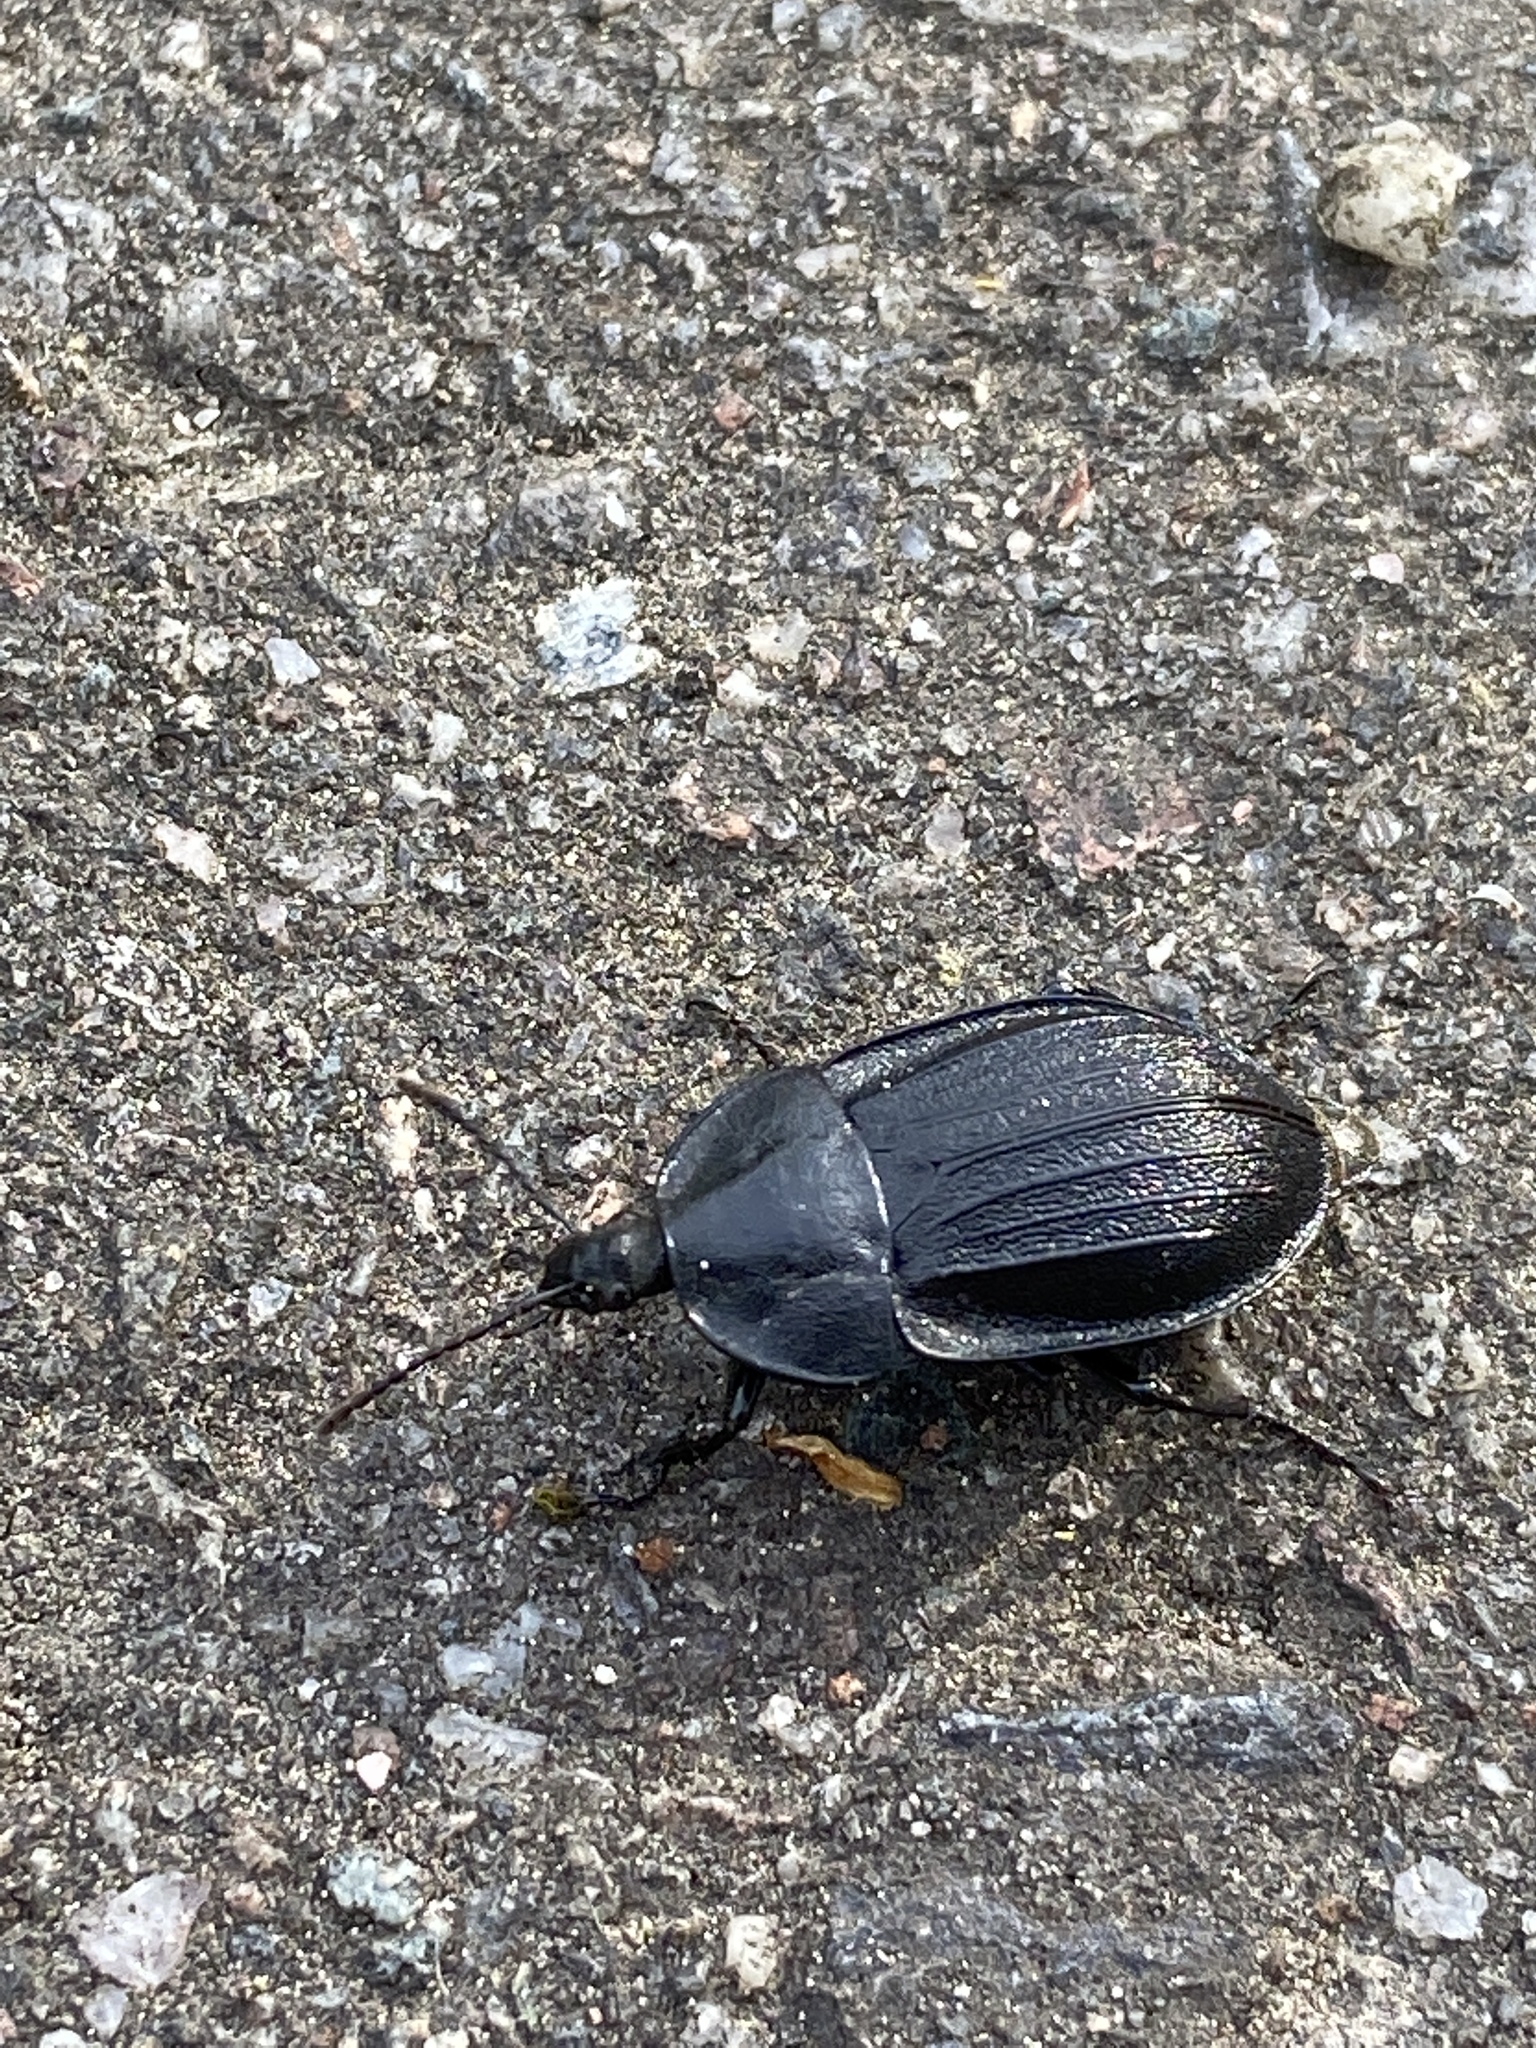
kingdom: Animalia
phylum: Arthropoda
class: Insecta
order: Coleoptera
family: Staphylinidae
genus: Silpha
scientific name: Silpha atrata
